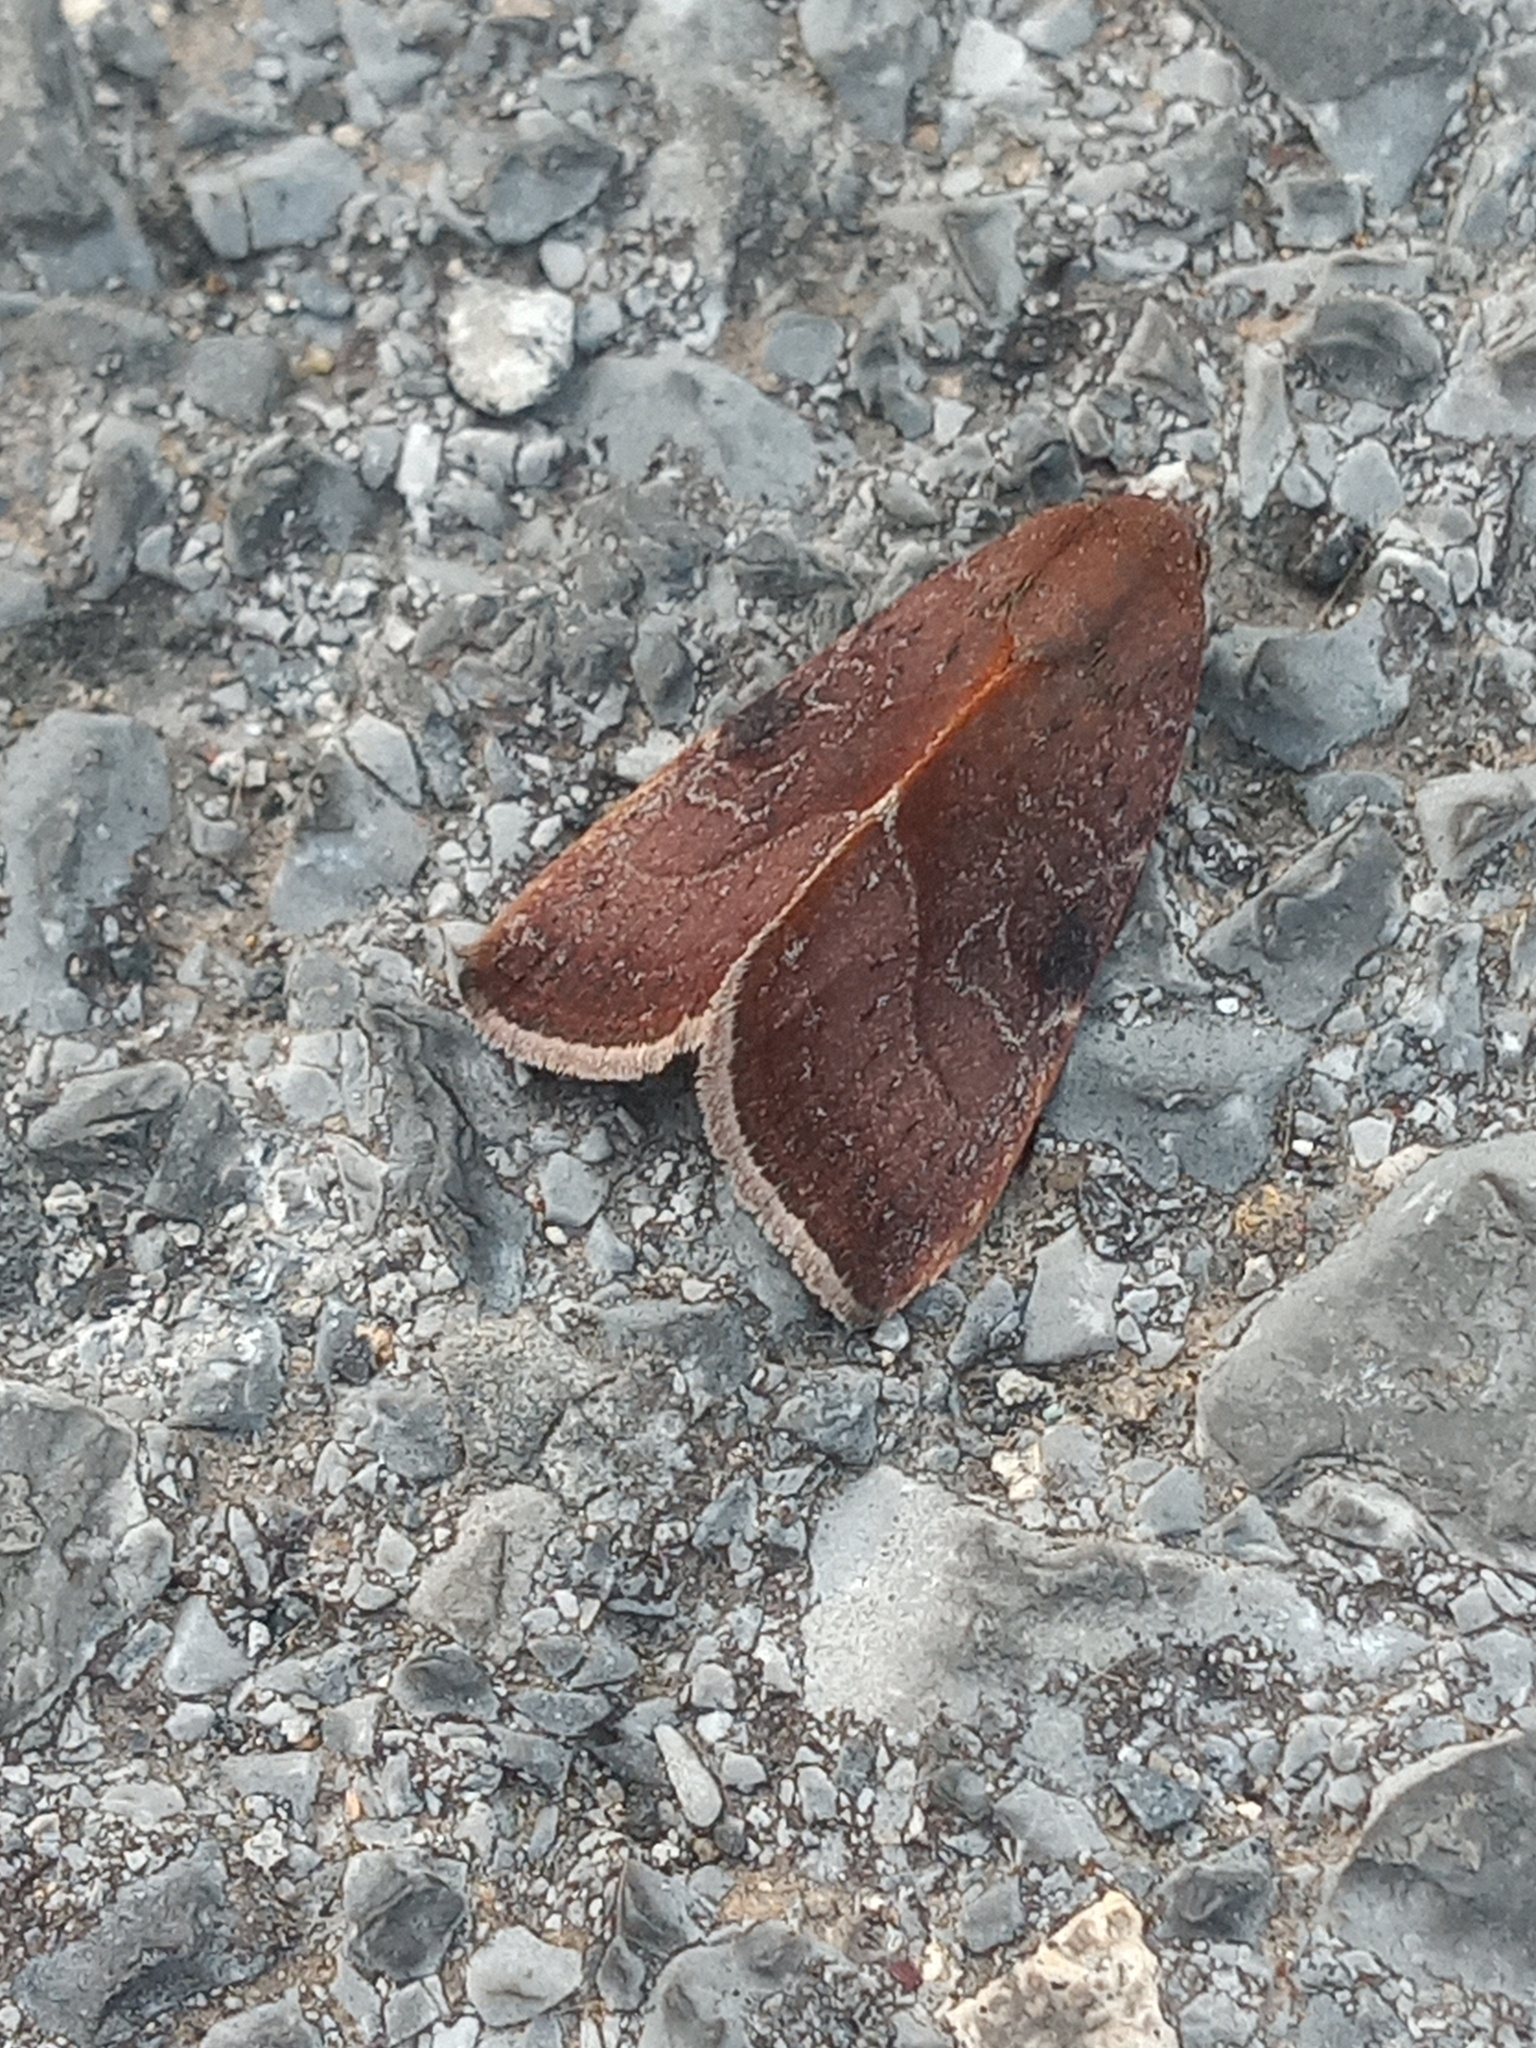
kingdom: Animalia
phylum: Arthropoda
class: Insecta
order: Lepidoptera
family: Noctuidae
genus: Galgula
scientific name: Galgula partita
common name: Wedgeling
